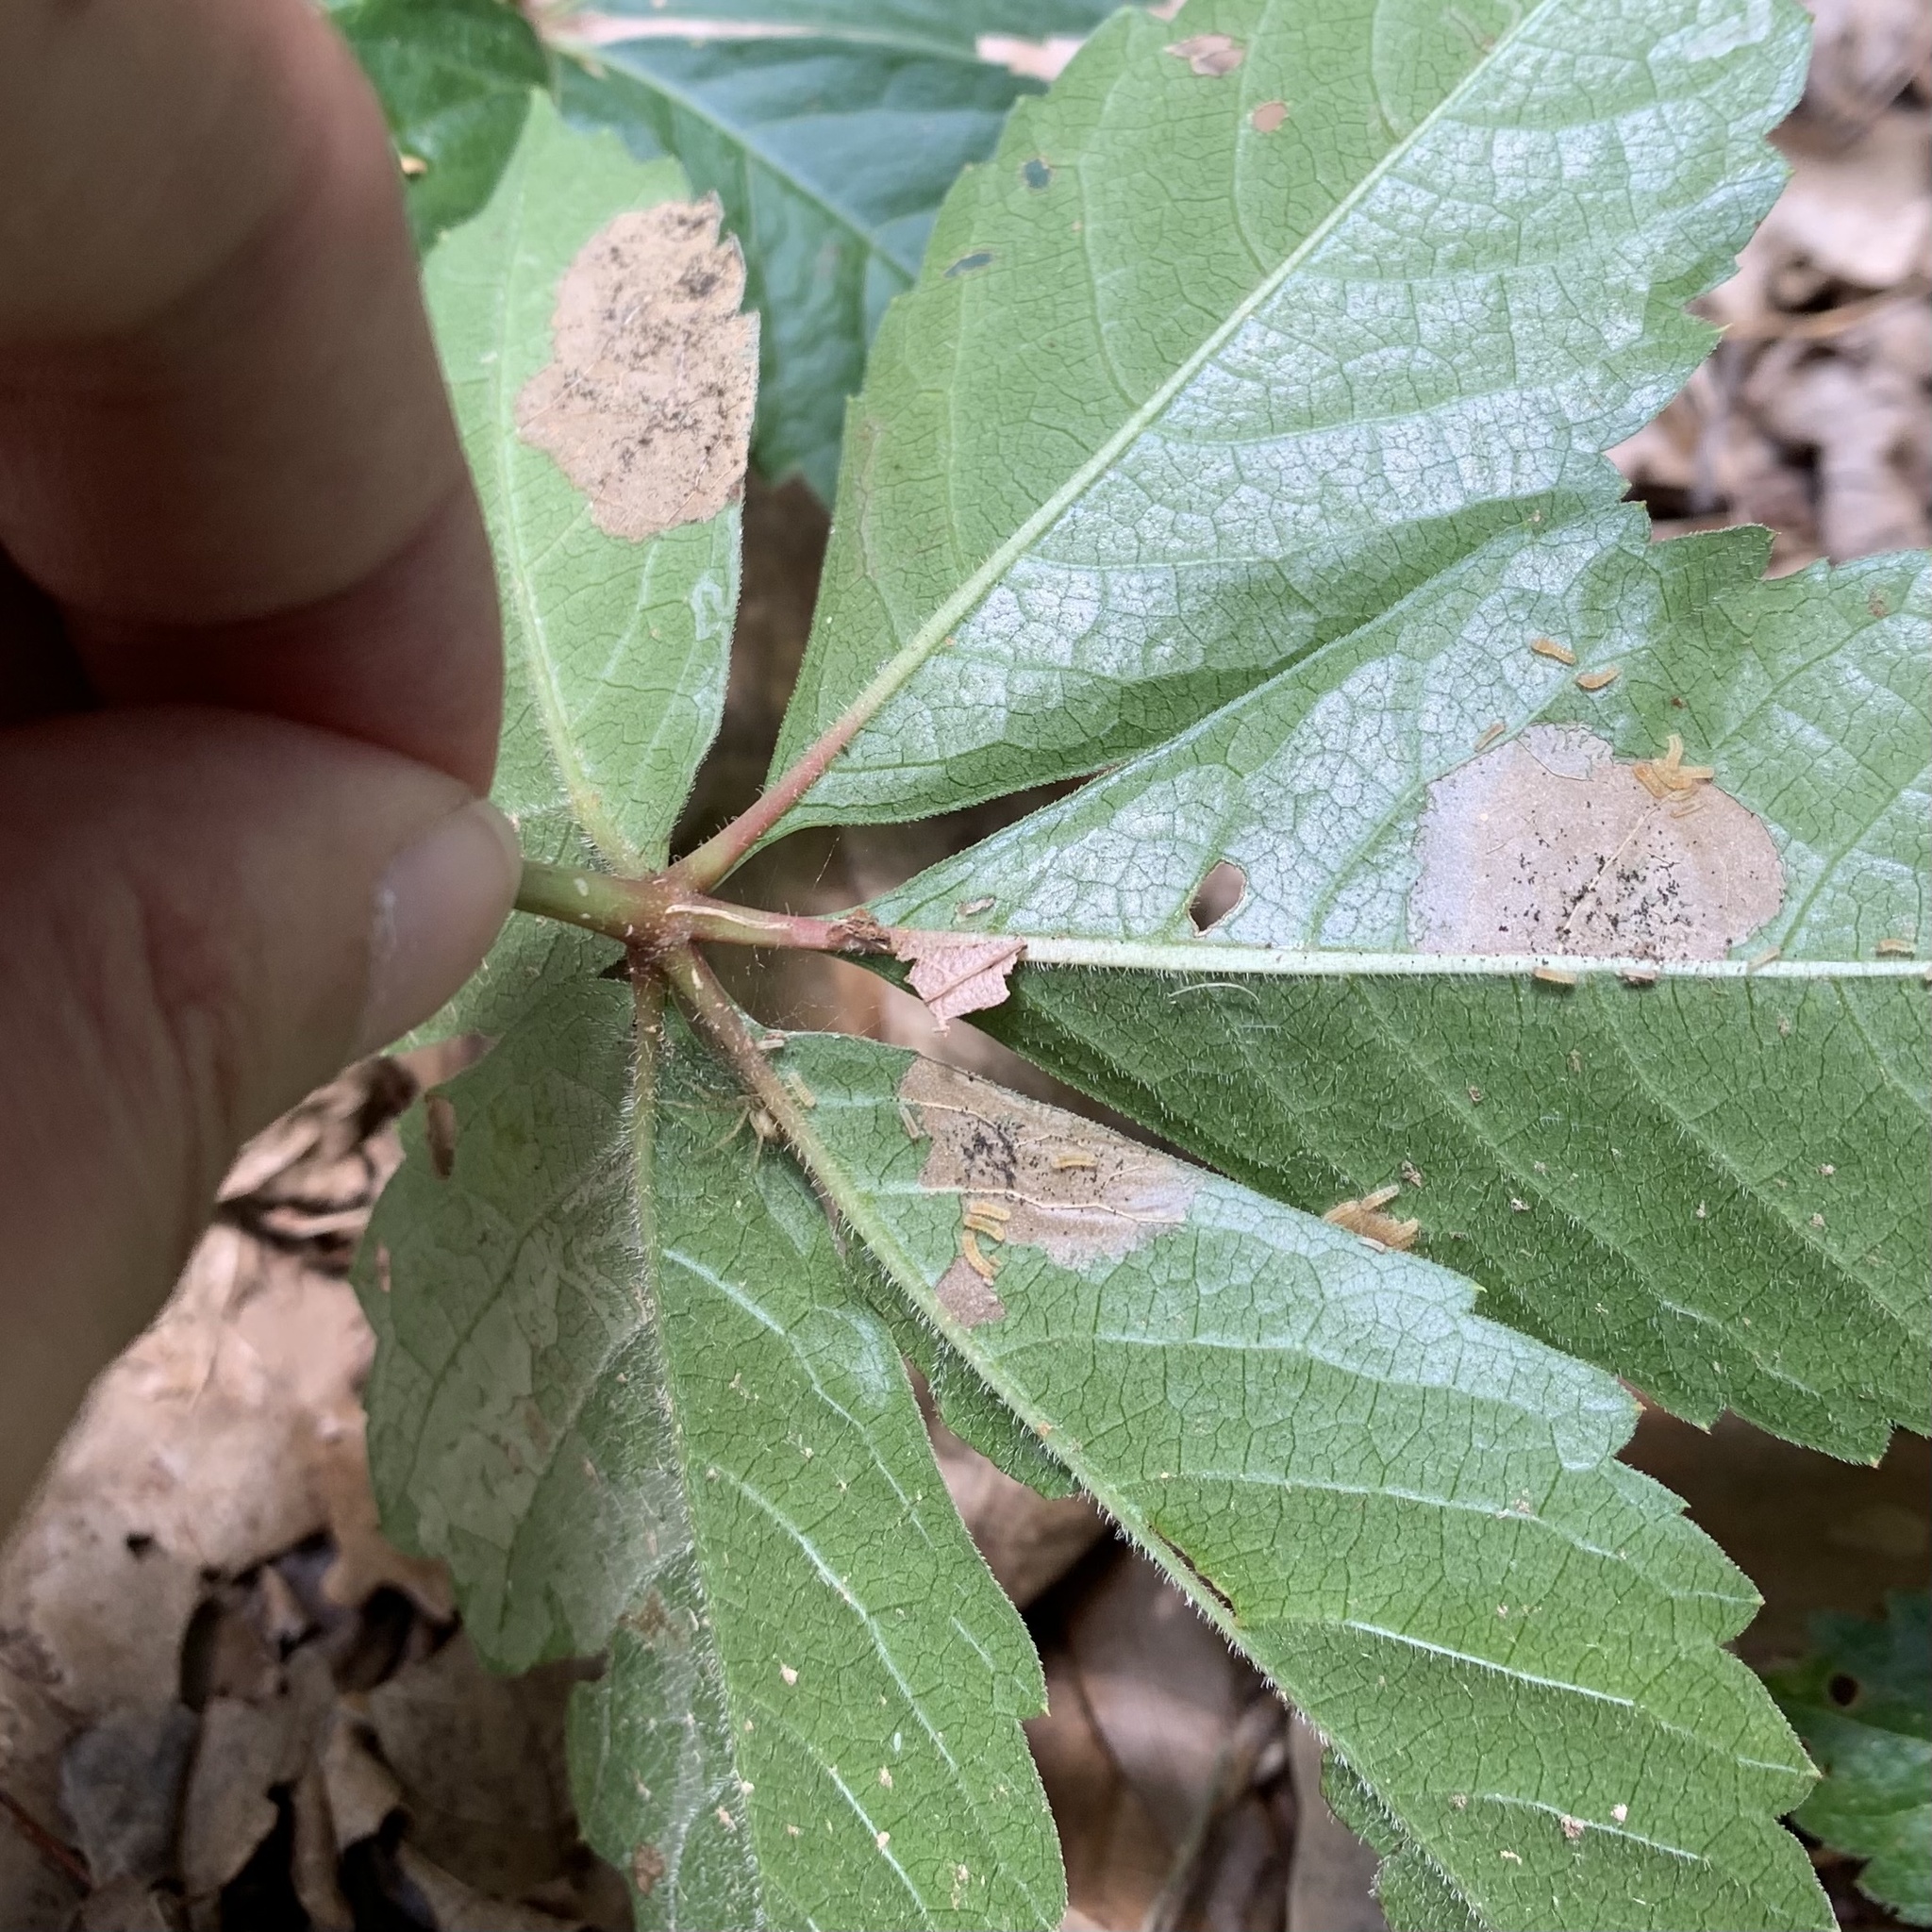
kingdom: Animalia
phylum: Arthropoda
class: Insecta
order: Lepidoptera
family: Gracillariidae
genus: Phyllocnistis
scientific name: Phyllocnistis ampelopsiella
